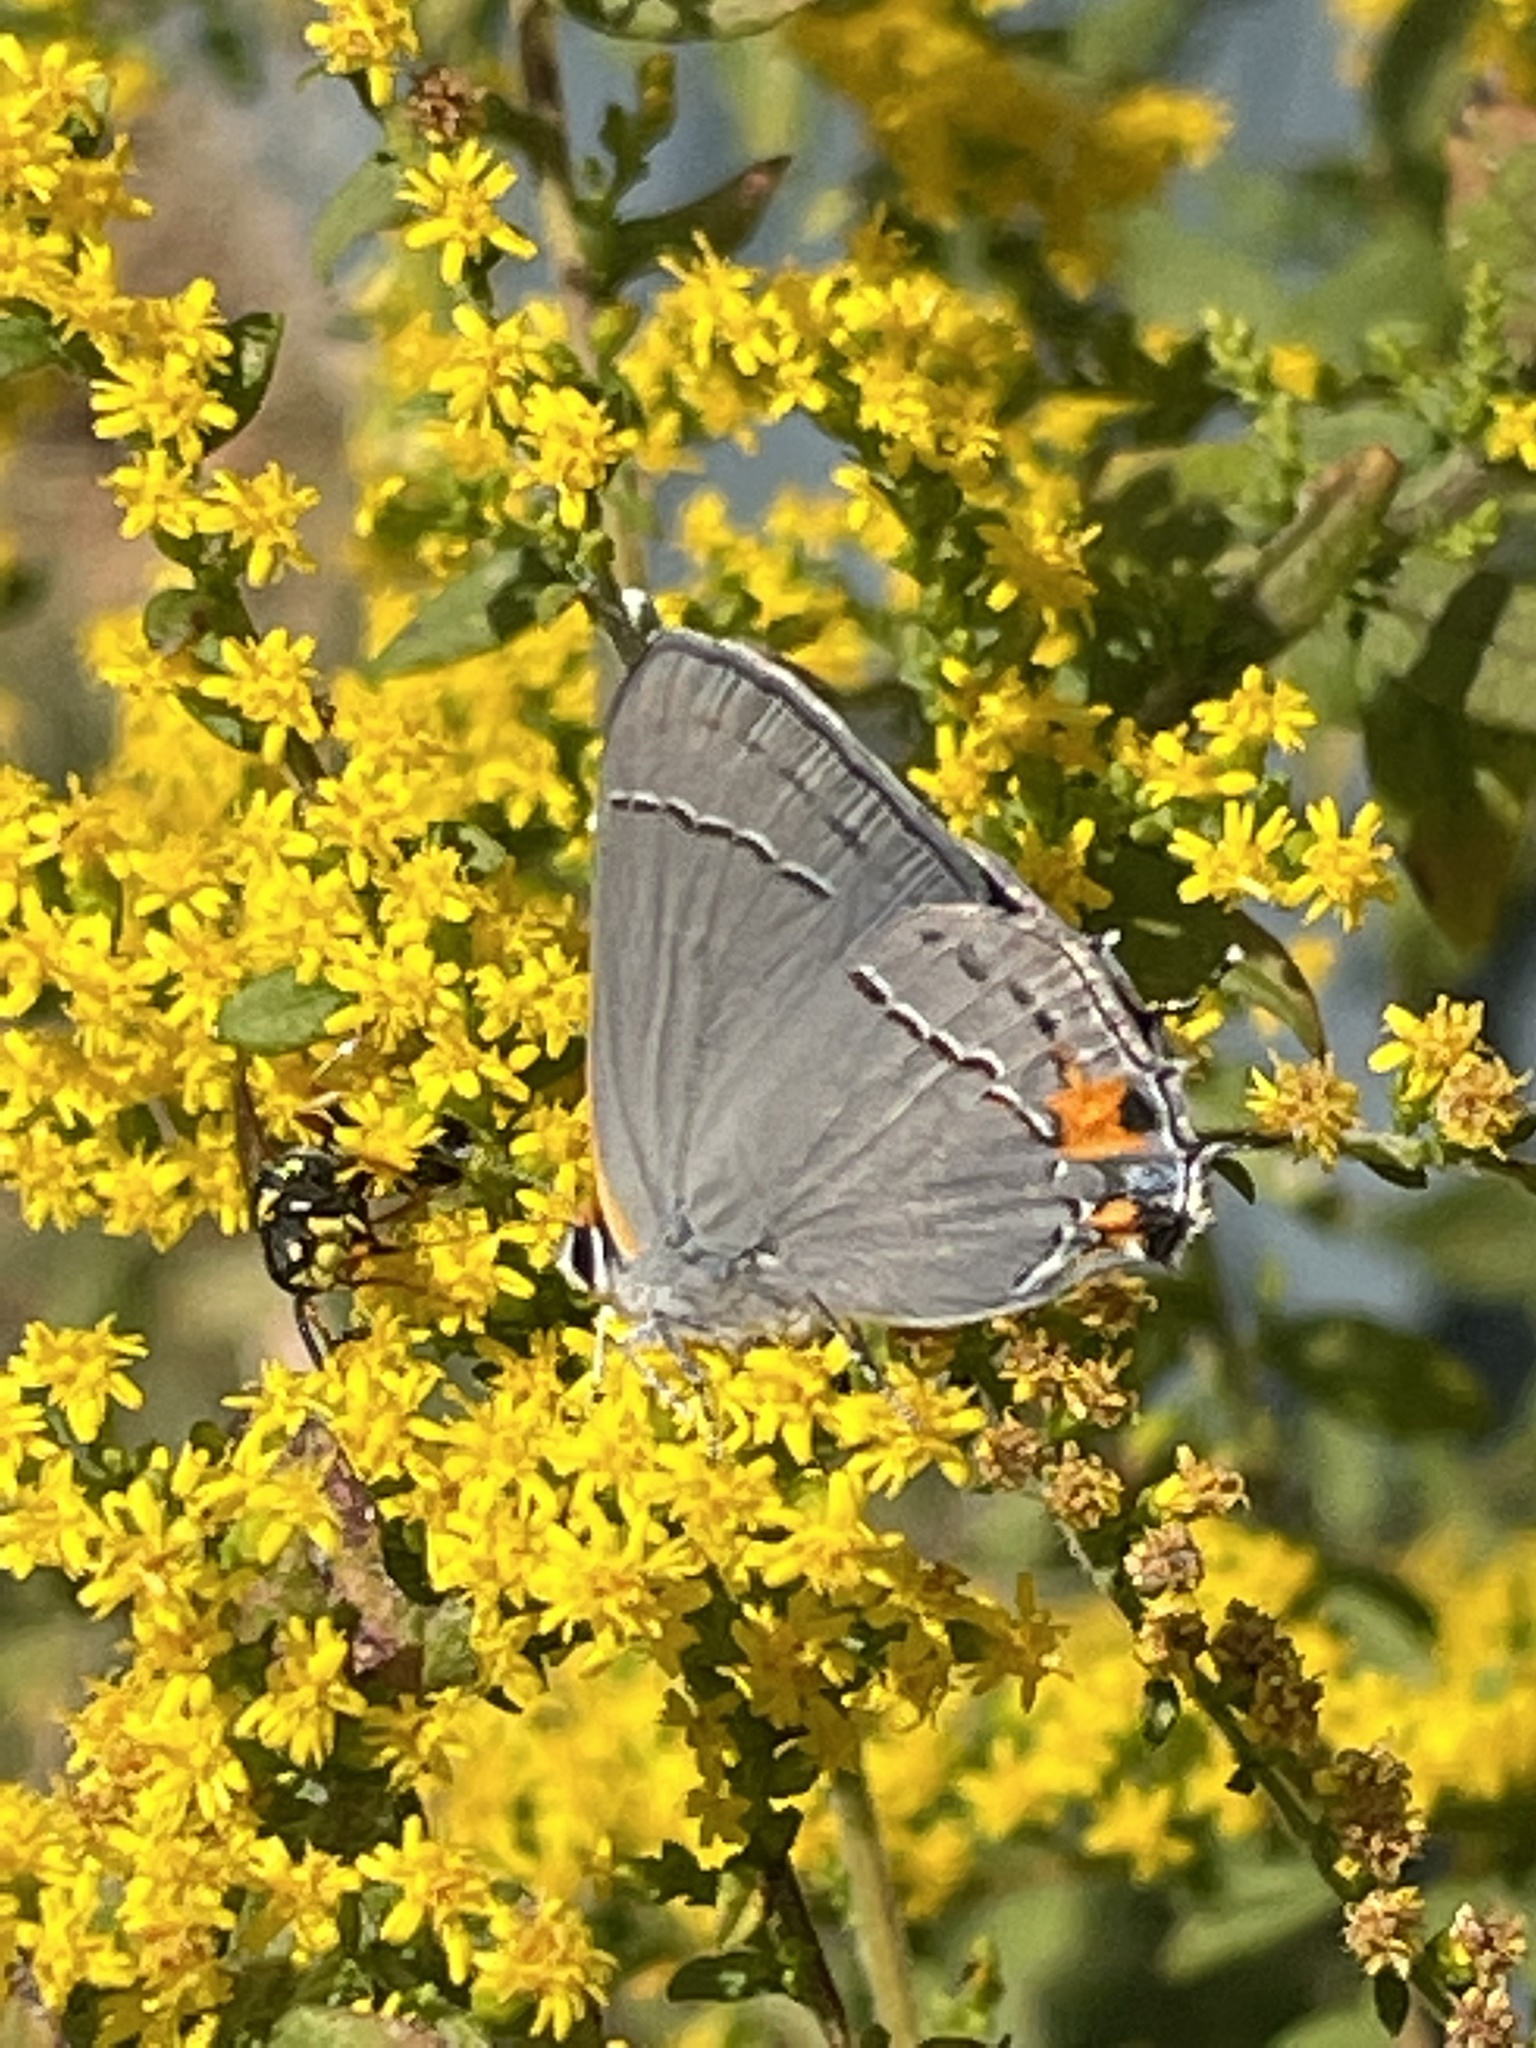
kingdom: Animalia
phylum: Arthropoda
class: Insecta
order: Lepidoptera
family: Lycaenidae
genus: Strymon
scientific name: Strymon melinus
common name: Gray hairstreak
